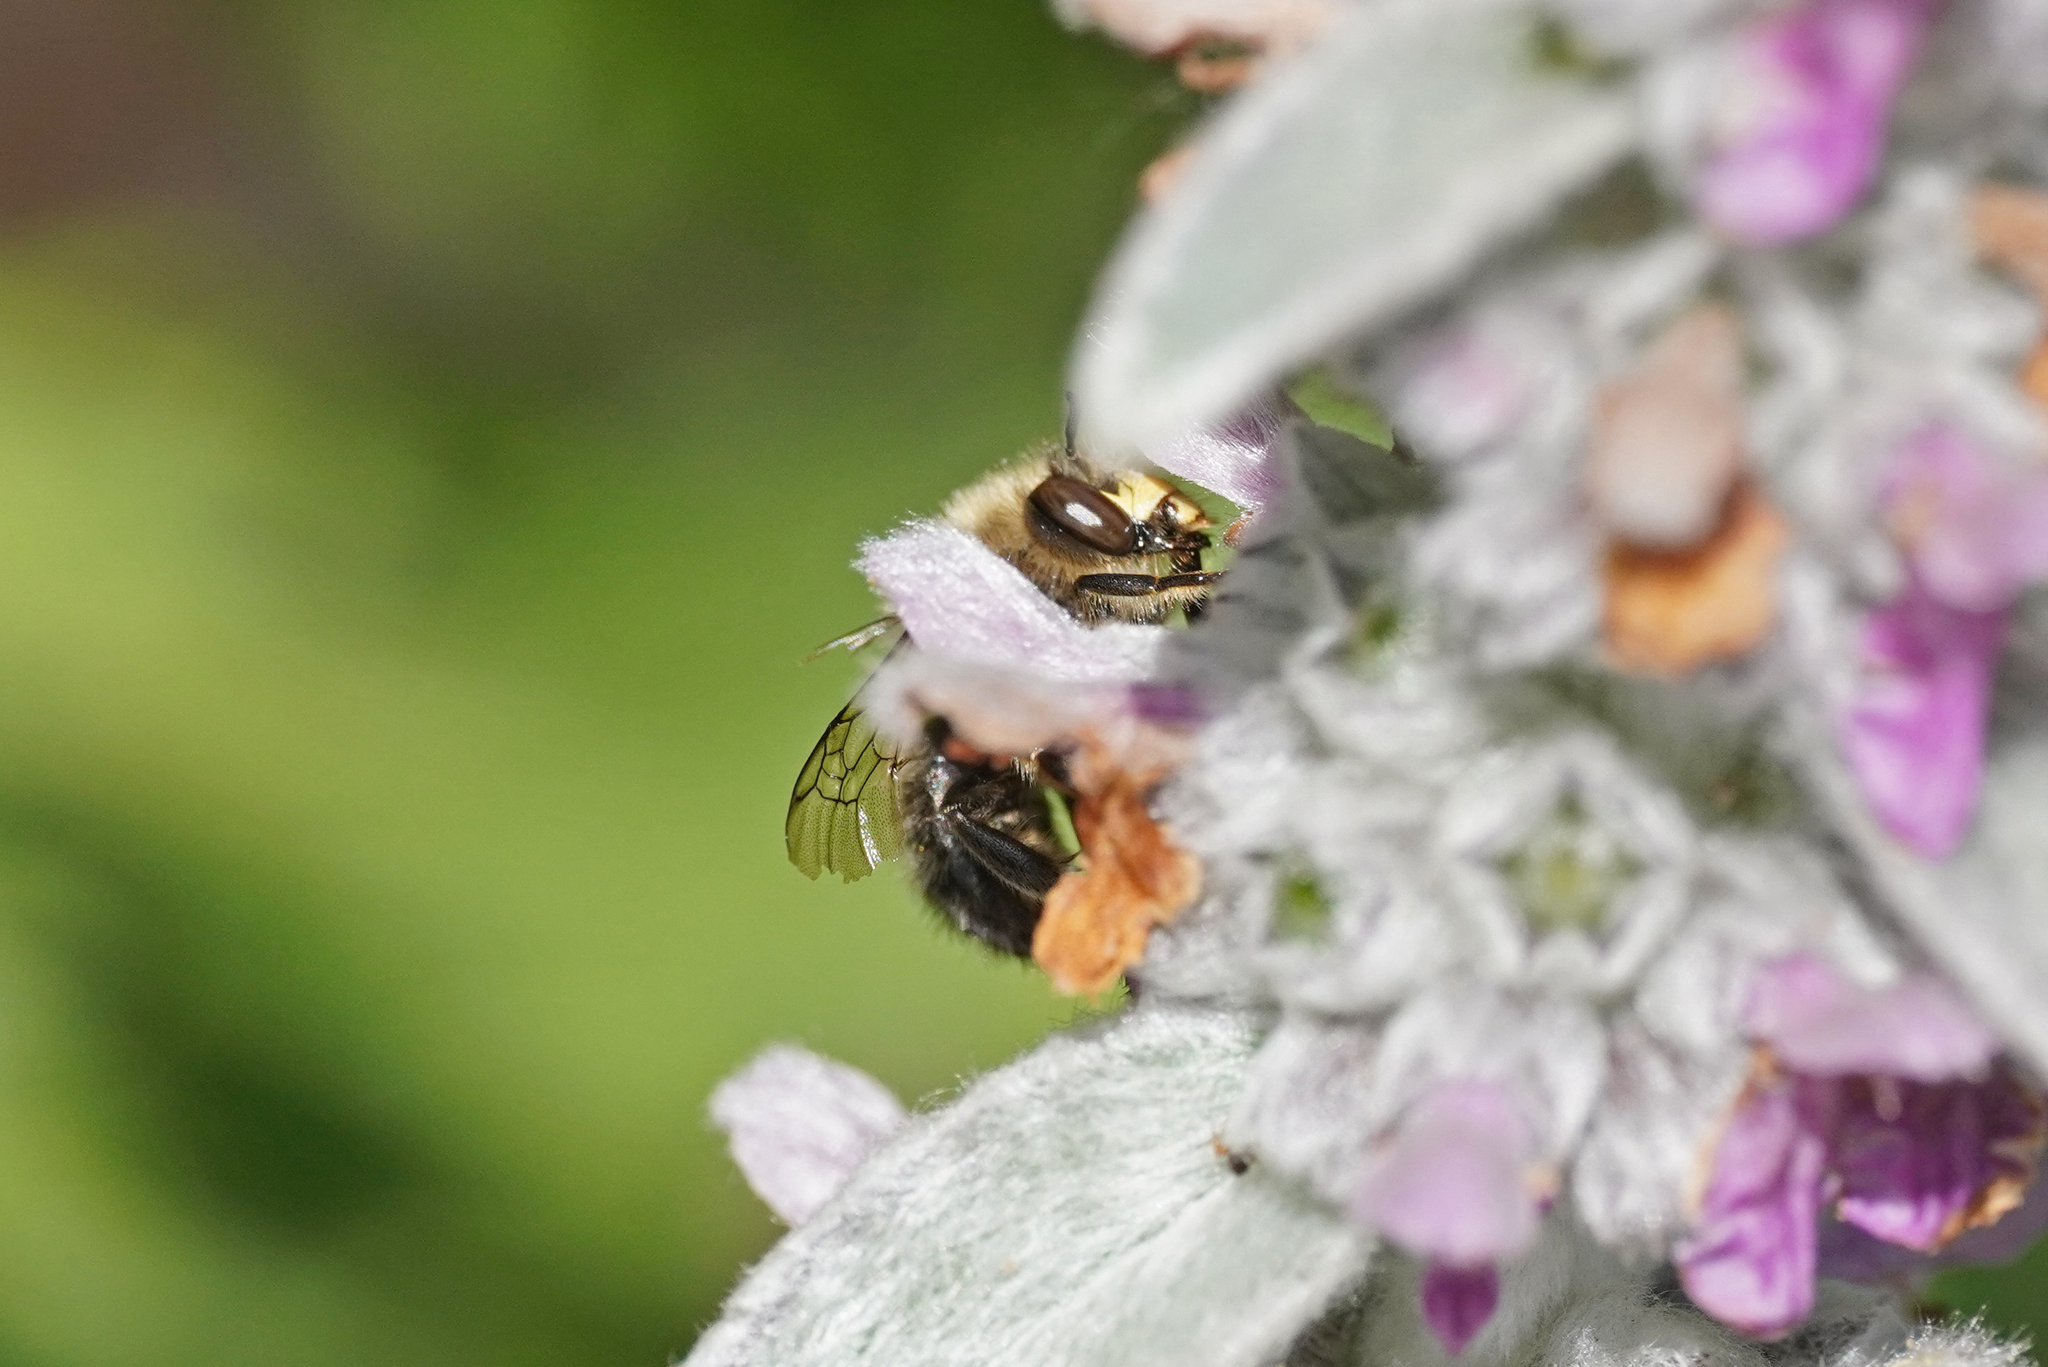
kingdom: Animalia
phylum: Arthropoda
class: Insecta
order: Hymenoptera
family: Apidae
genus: Anthophora
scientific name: Anthophora furcata
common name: Fork-tailed flower bee
